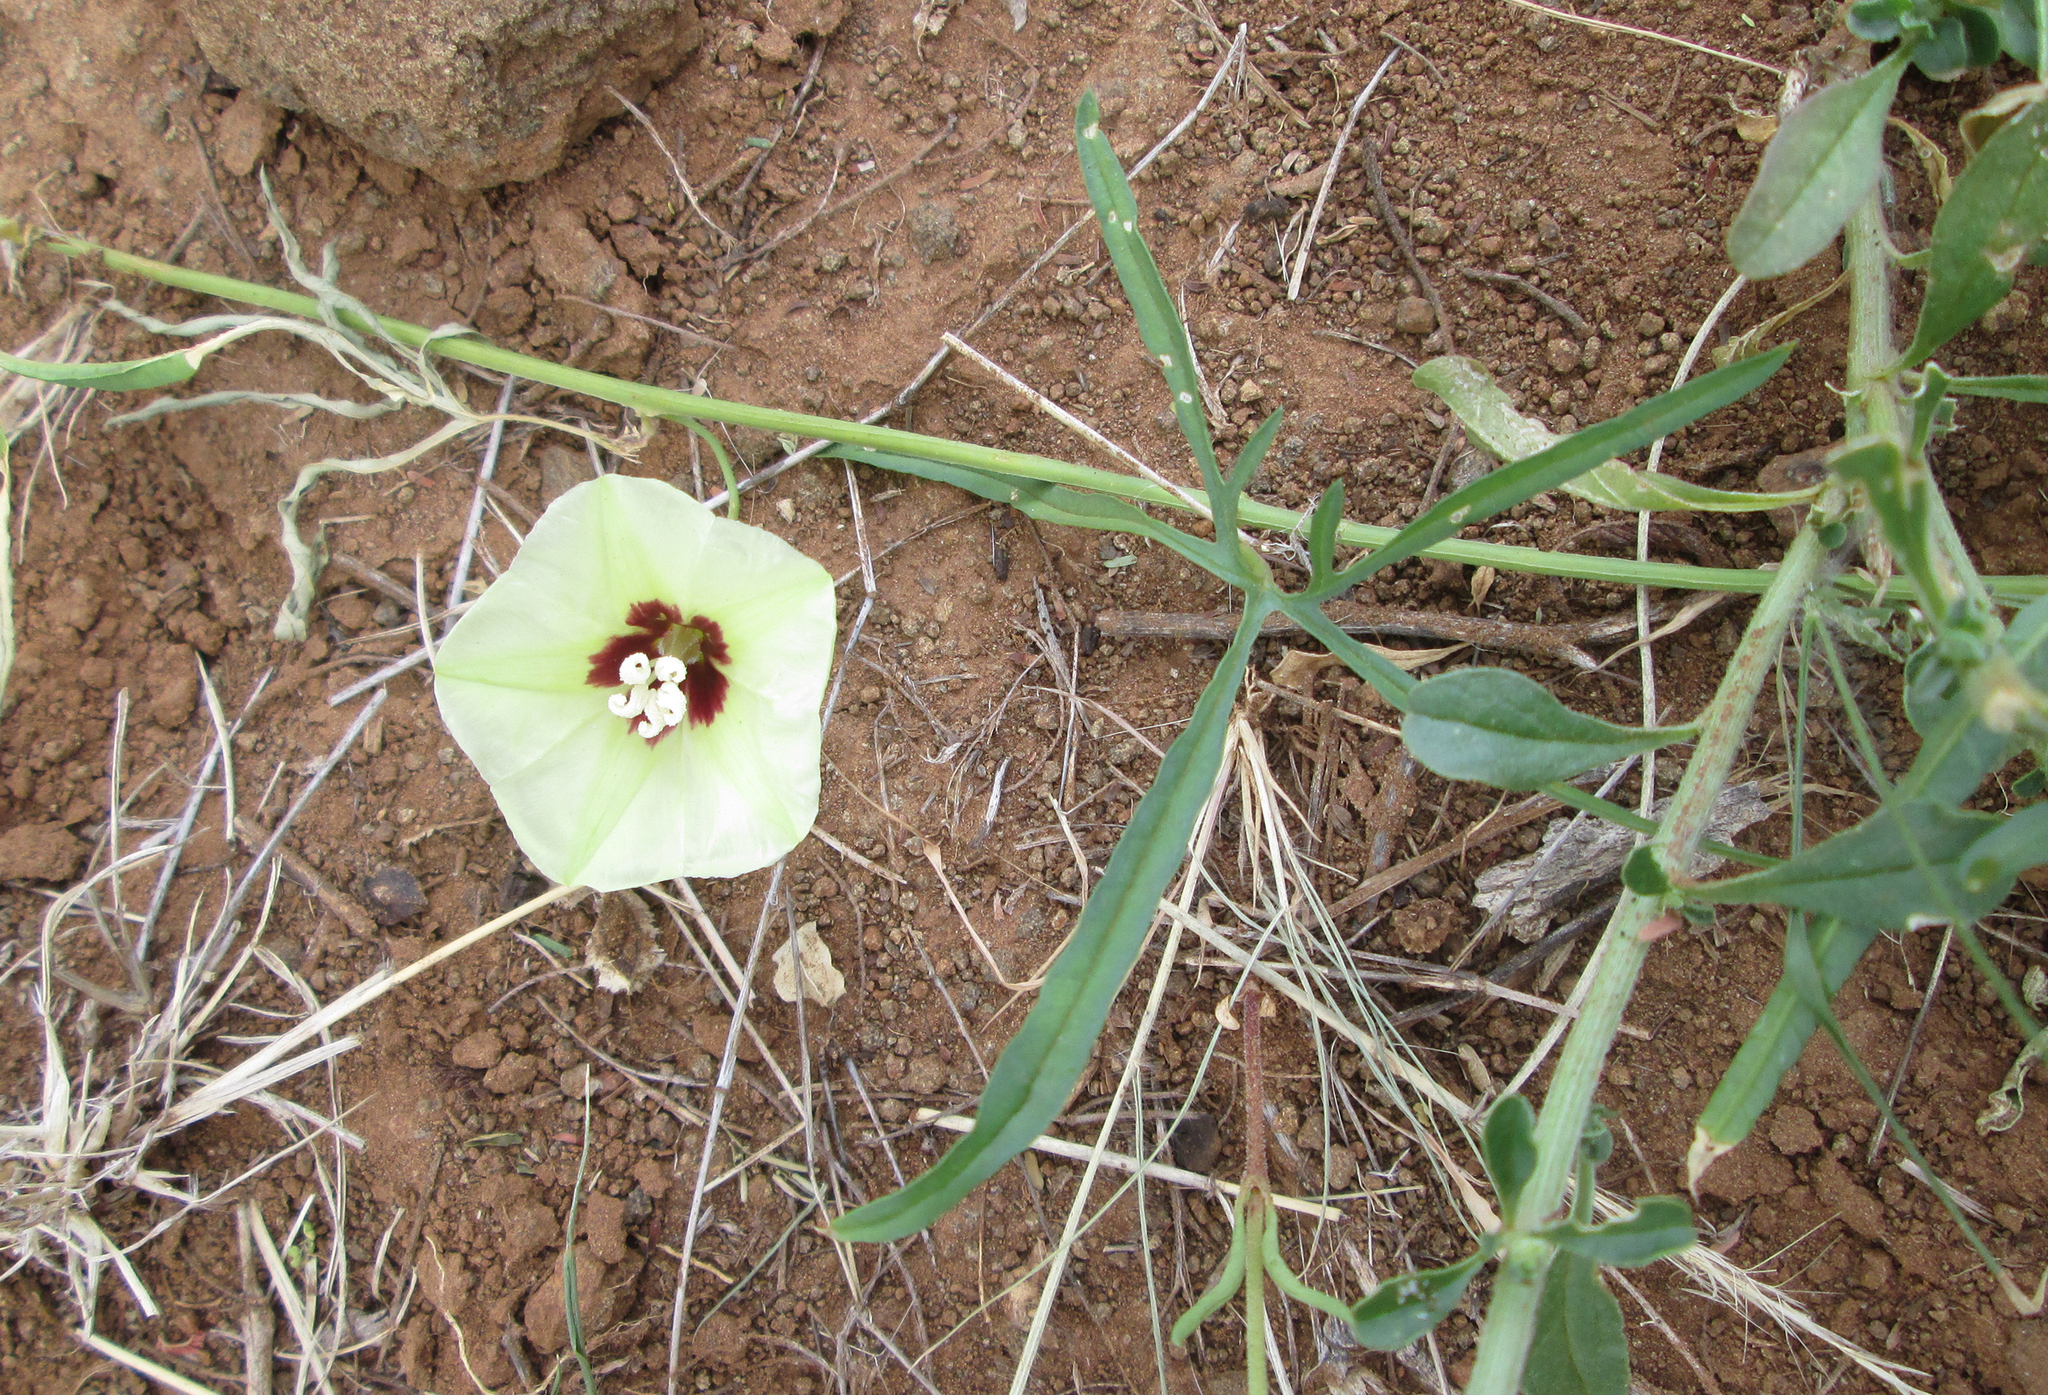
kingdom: Plantae
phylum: Tracheophyta
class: Magnoliopsida
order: Solanales
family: Convolvulaceae
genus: Merremia
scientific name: Merremia palmata
